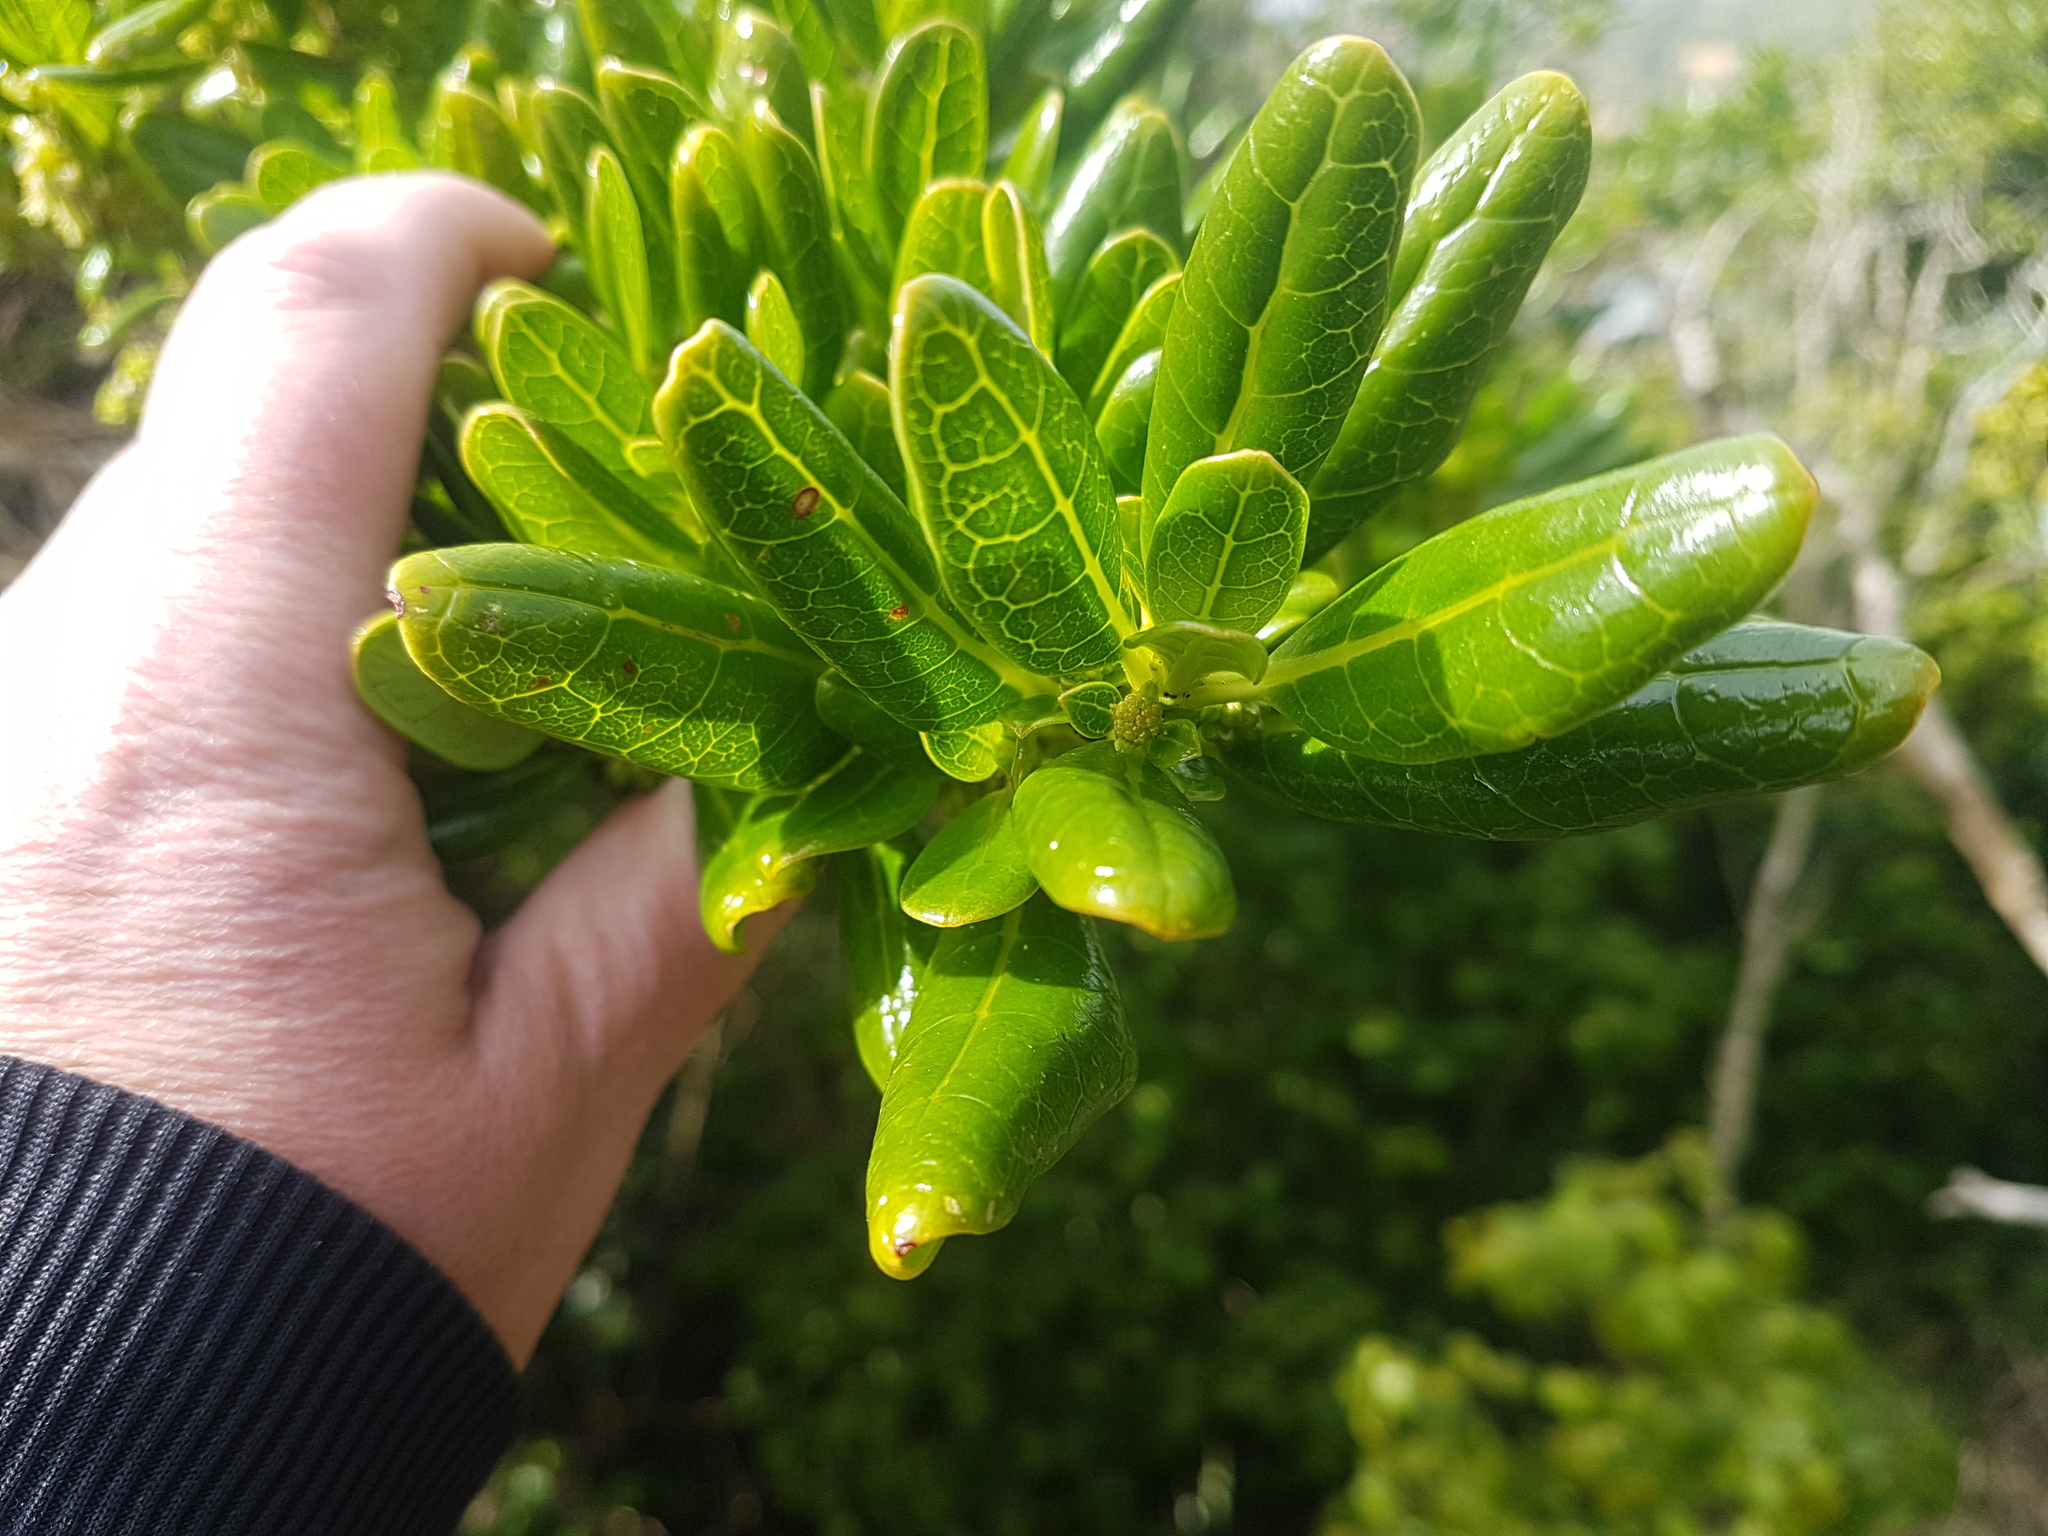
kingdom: Plantae
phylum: Tracheophyta
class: Magnoliopsida
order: Gentianales
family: Rubiaceae
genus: Coprosma
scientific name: Coprosma repens
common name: Tree bedstraw
